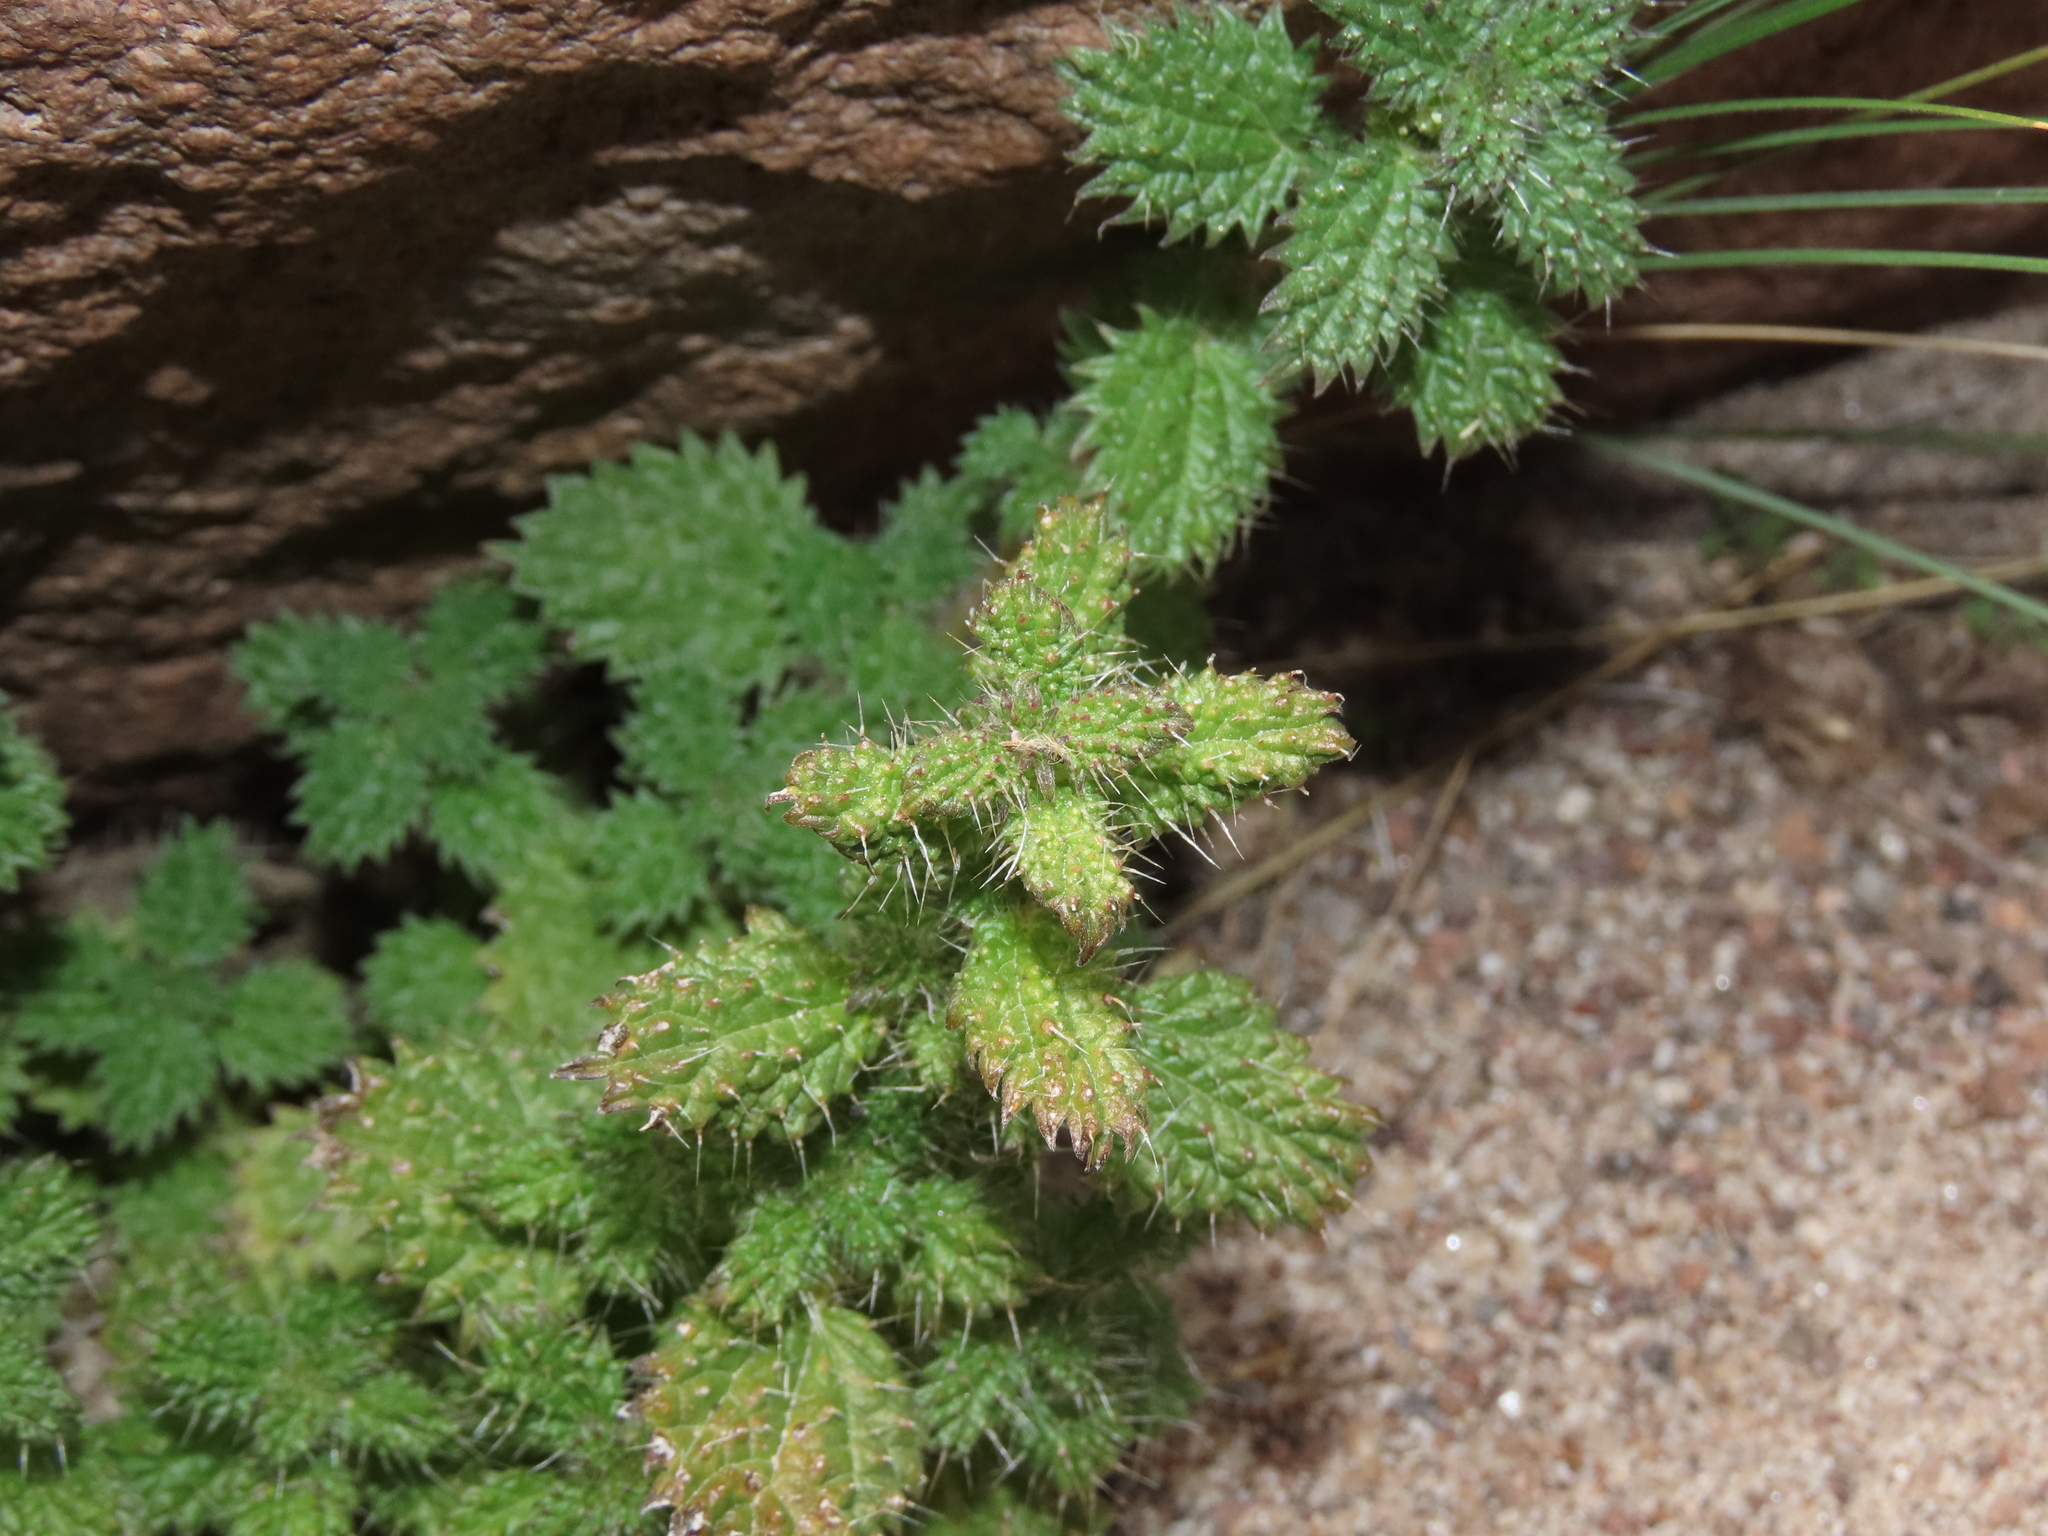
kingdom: Plantae
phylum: Tracheophyta
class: Magnoliopsida
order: Rosales
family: Urticaceae
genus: Urtica
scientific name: Urtica echinata
